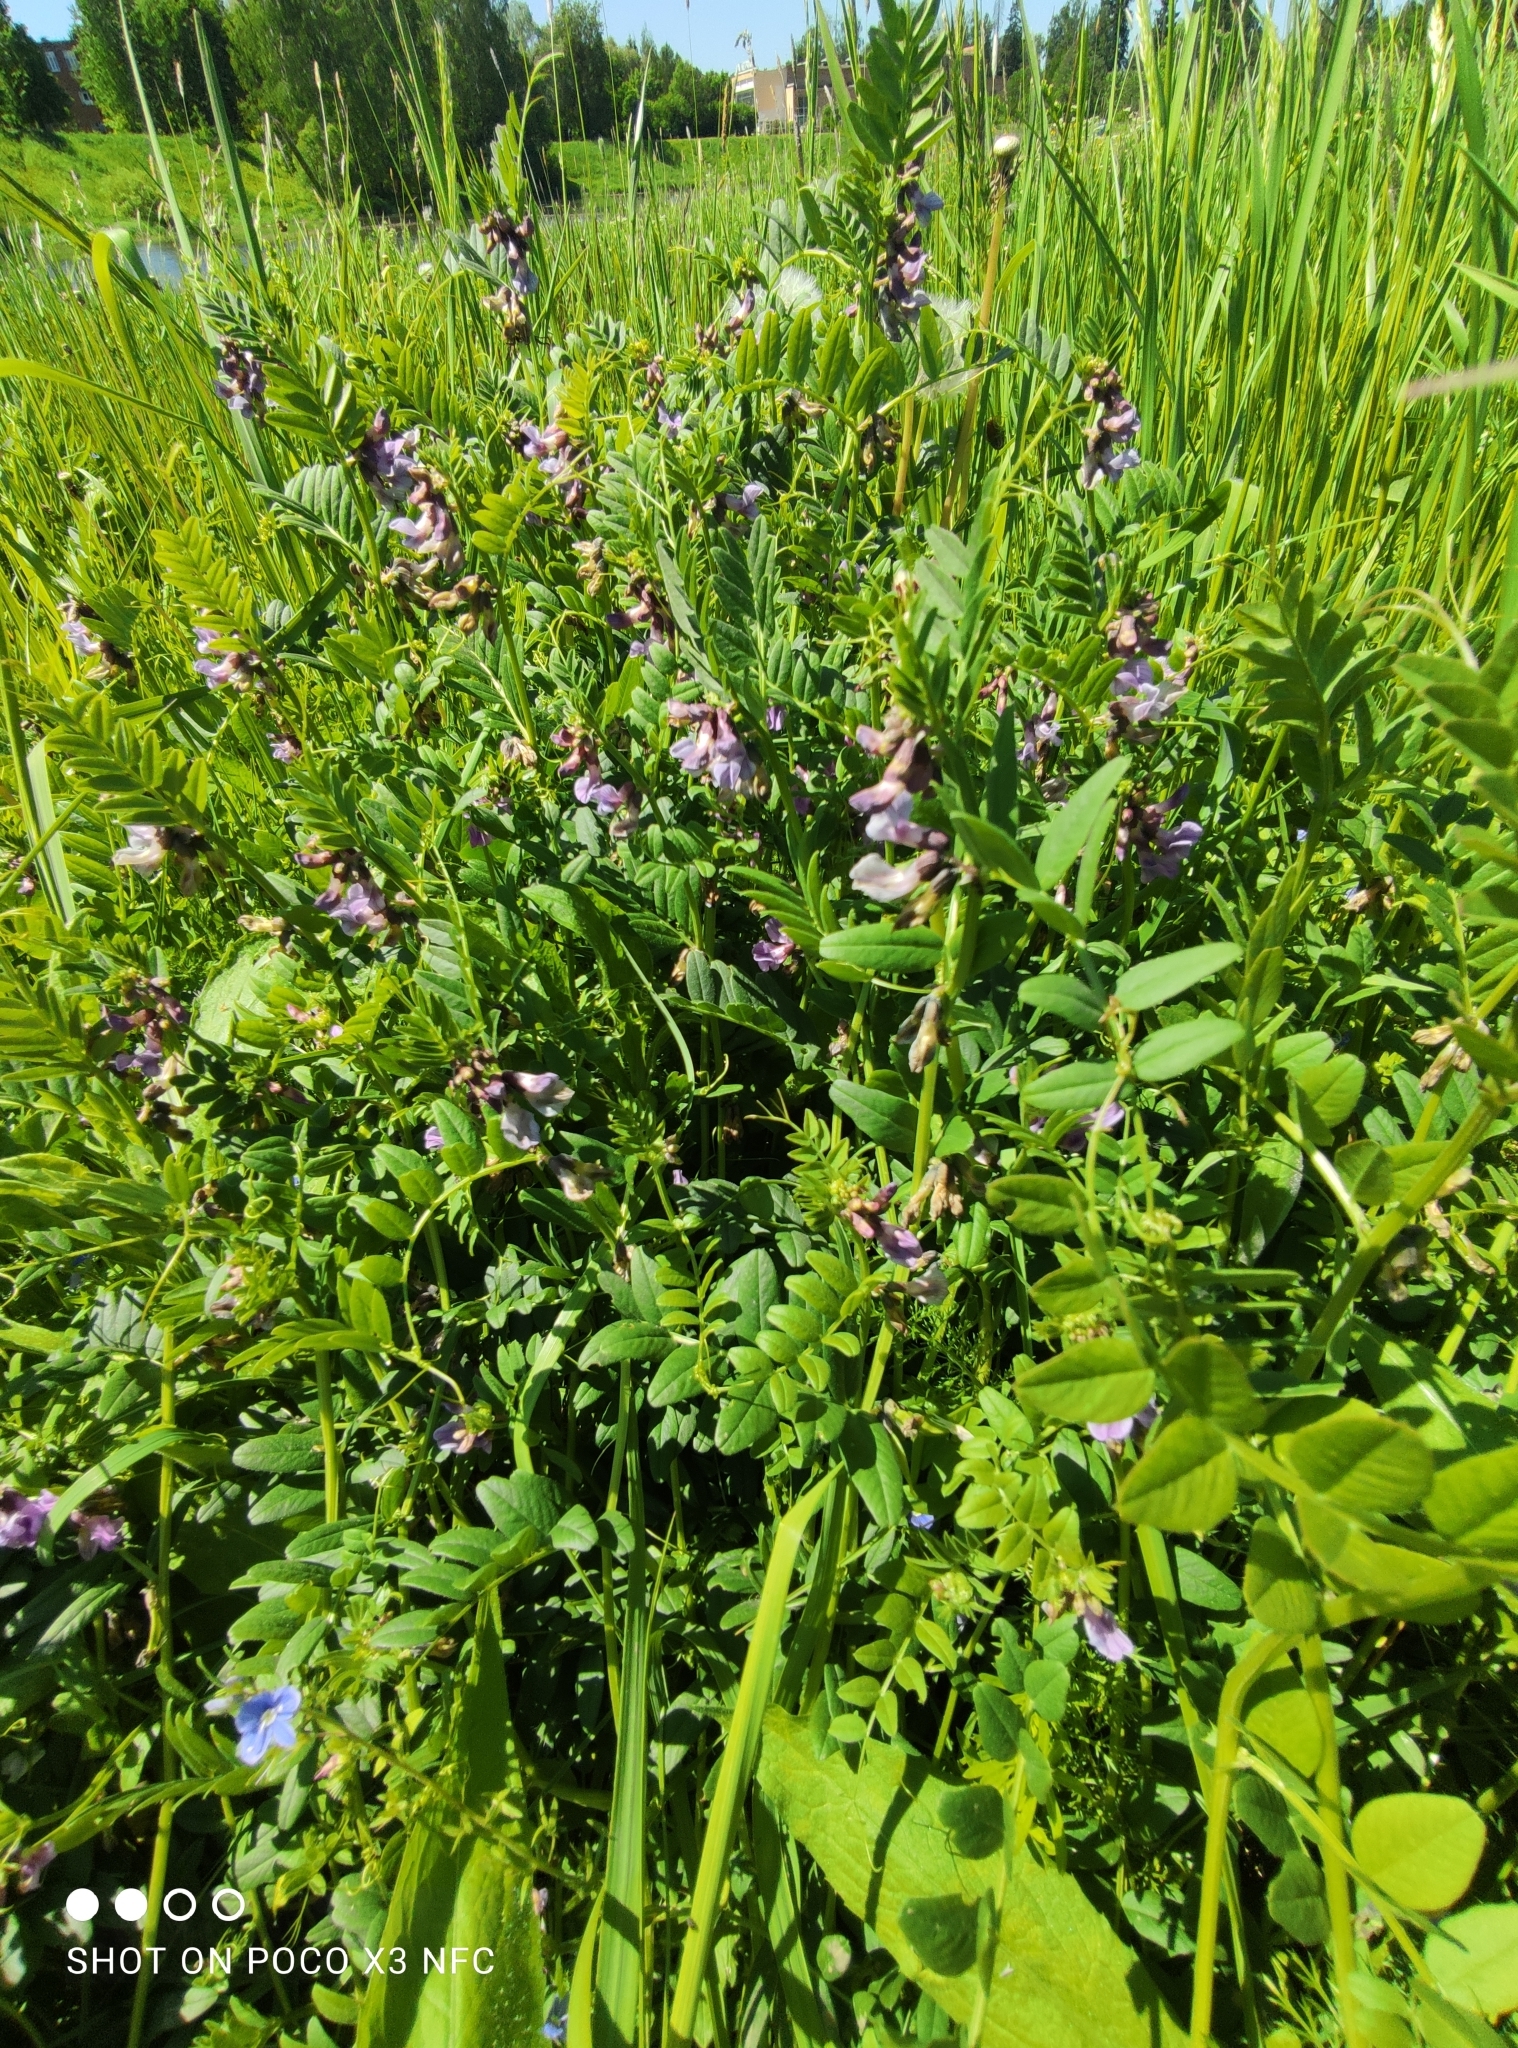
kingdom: Plantae
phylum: Tracheophyta
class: Magnoliopsida
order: Fabales
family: Fabaceae
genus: Vicia
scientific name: Vicia sepium
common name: Bush vetch
